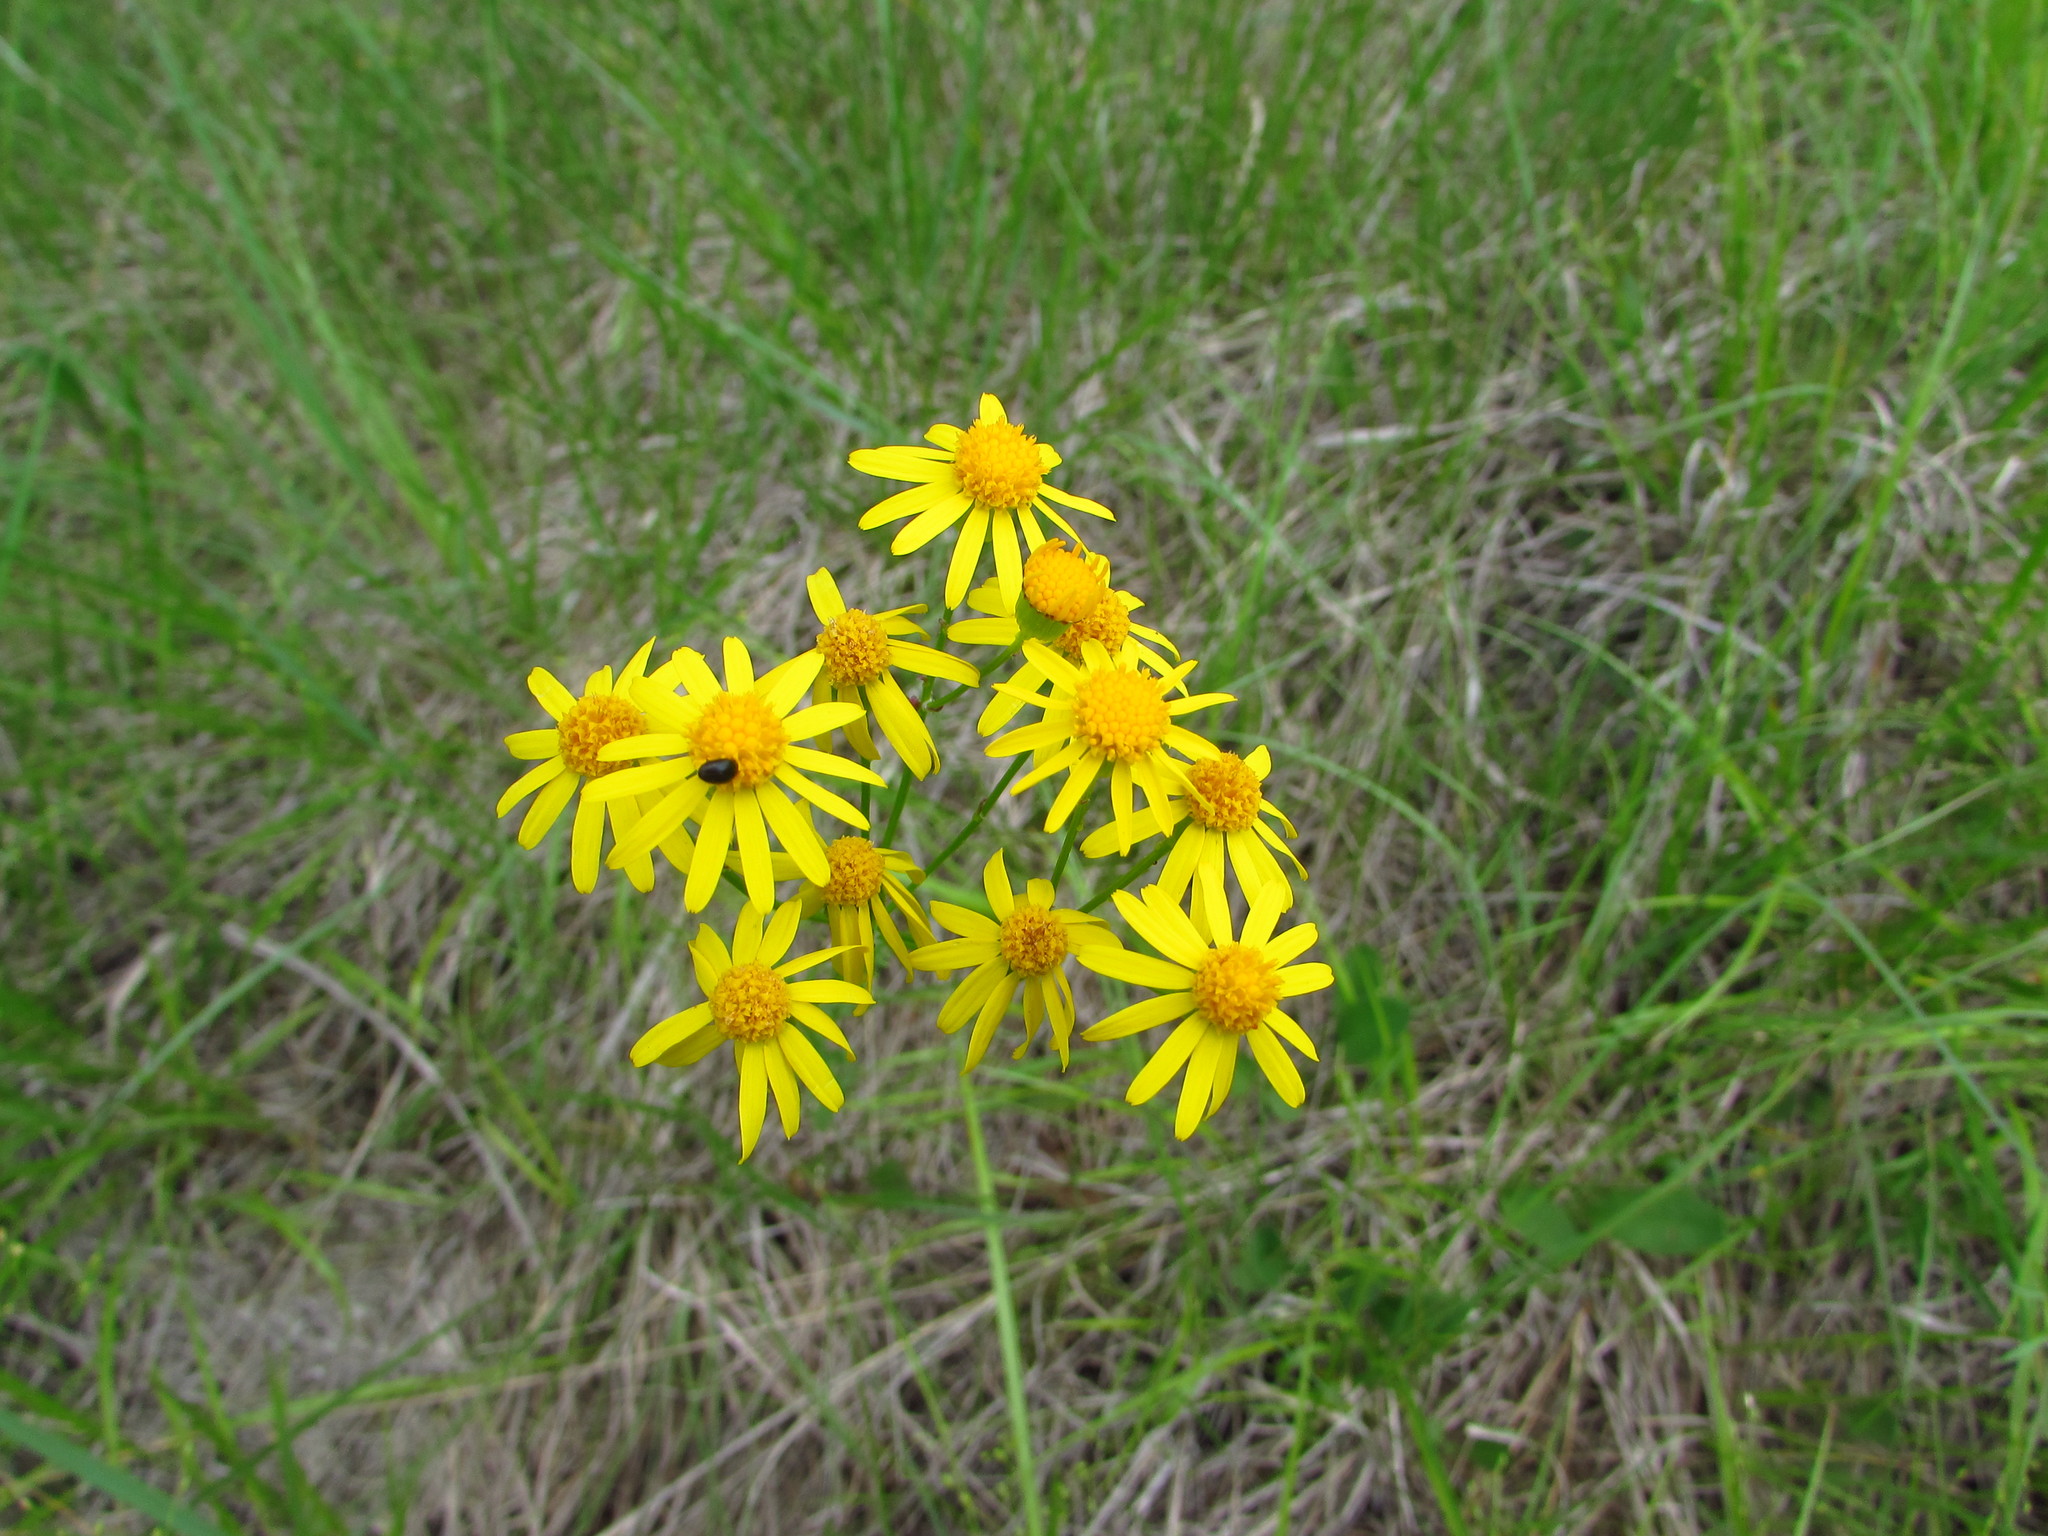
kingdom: Plantae
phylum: Tracheophyta
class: Magnoliopsida
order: Asterales
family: Asteraceae
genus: Packera
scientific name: Packera anonyma
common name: Small ragwort
